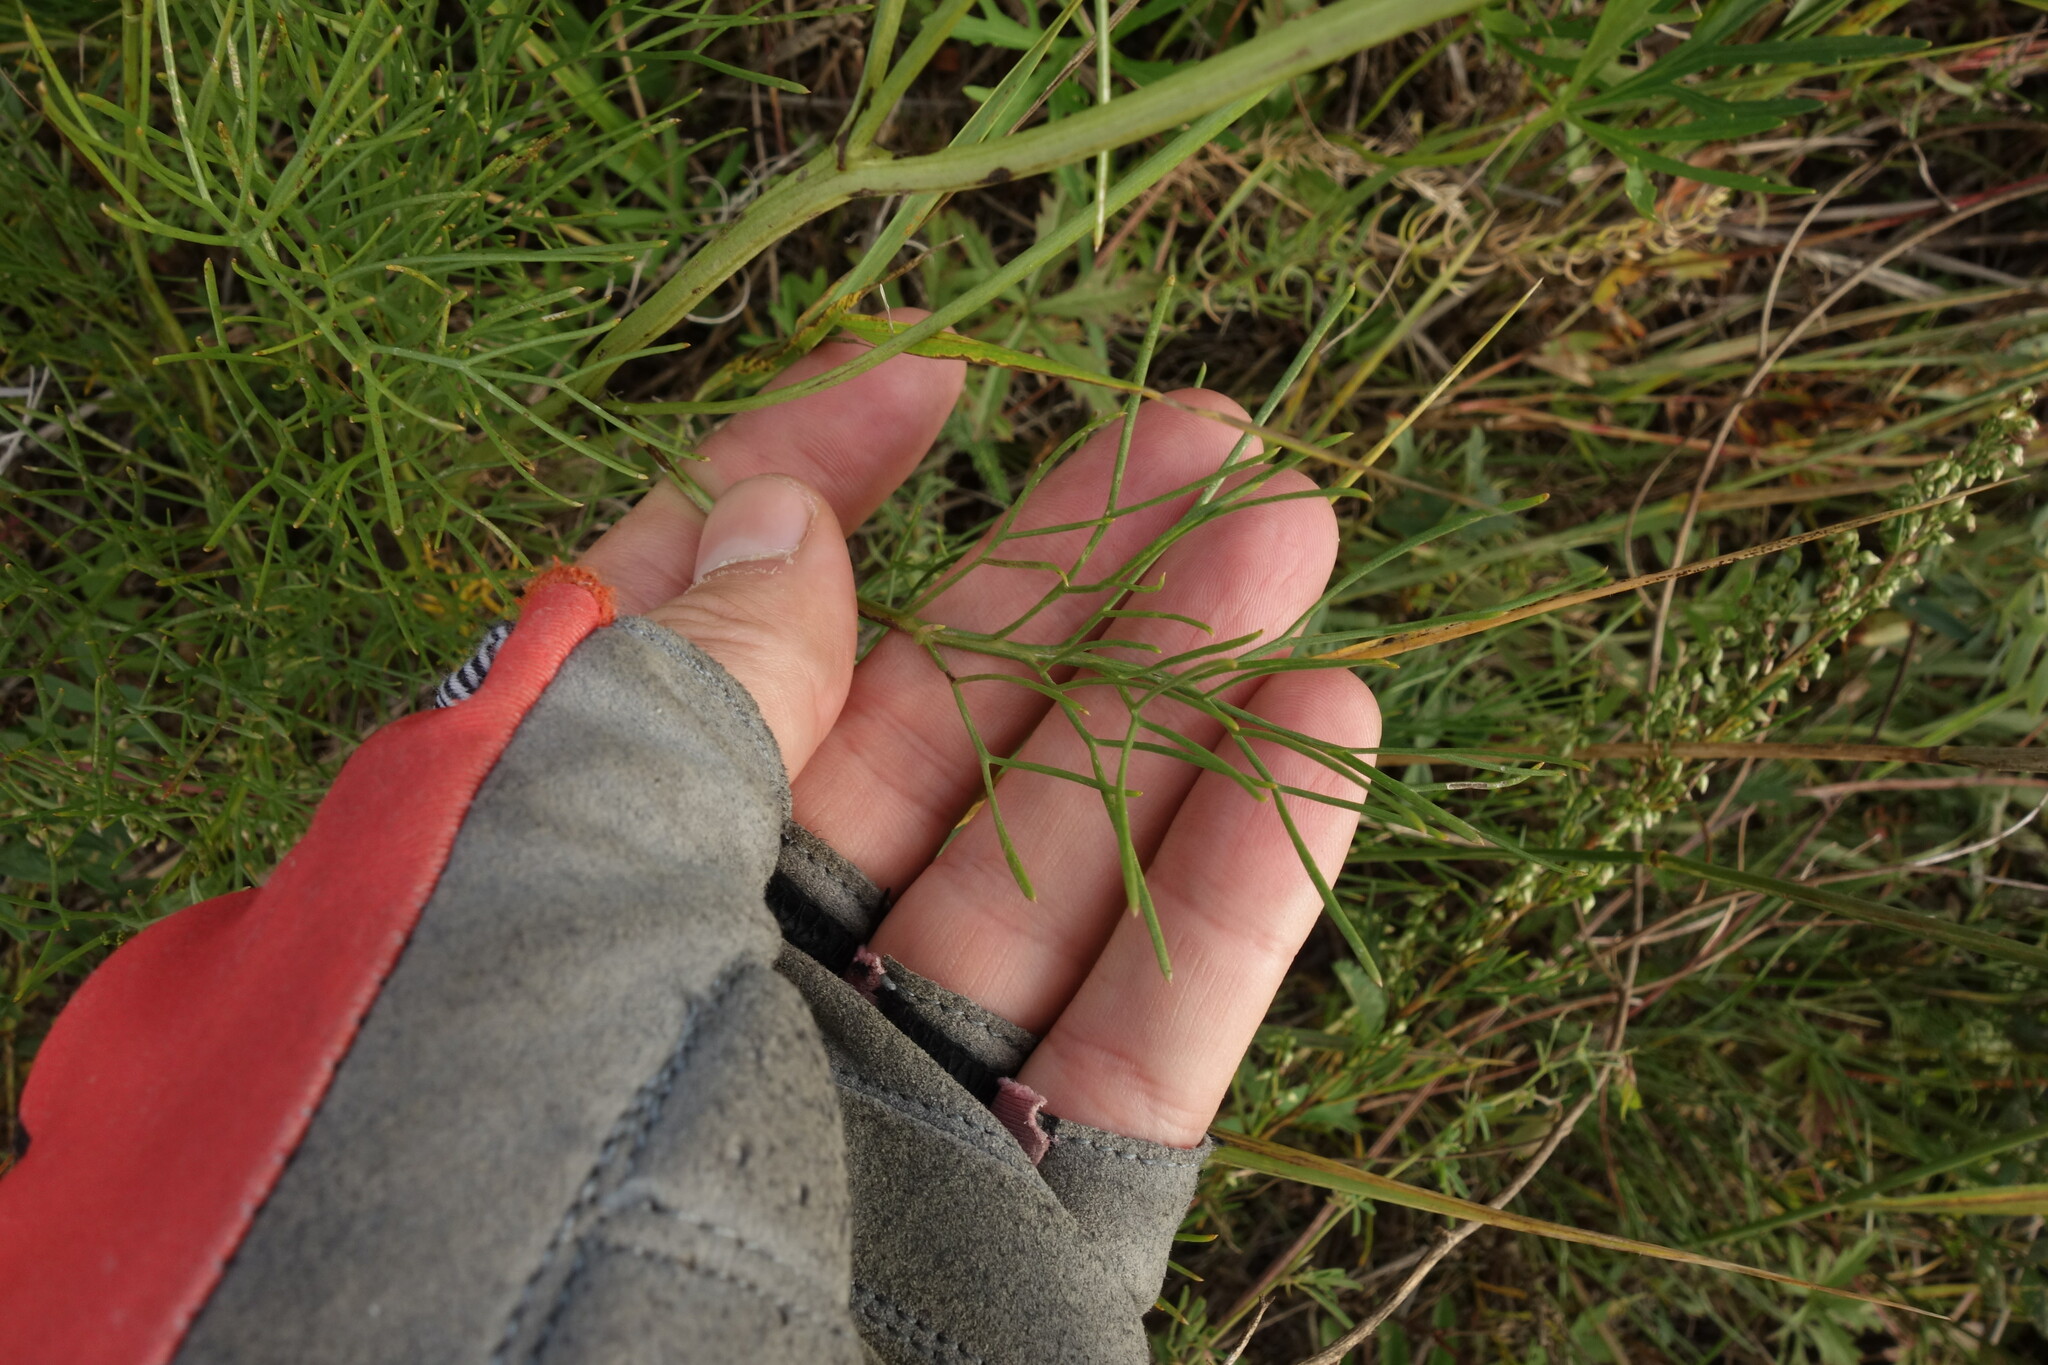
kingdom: Plantae
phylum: Tracheophyta
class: Magnoliopsida
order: Asterales
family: Asteraceae
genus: Filifolium
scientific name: Filifolium sibiricum
